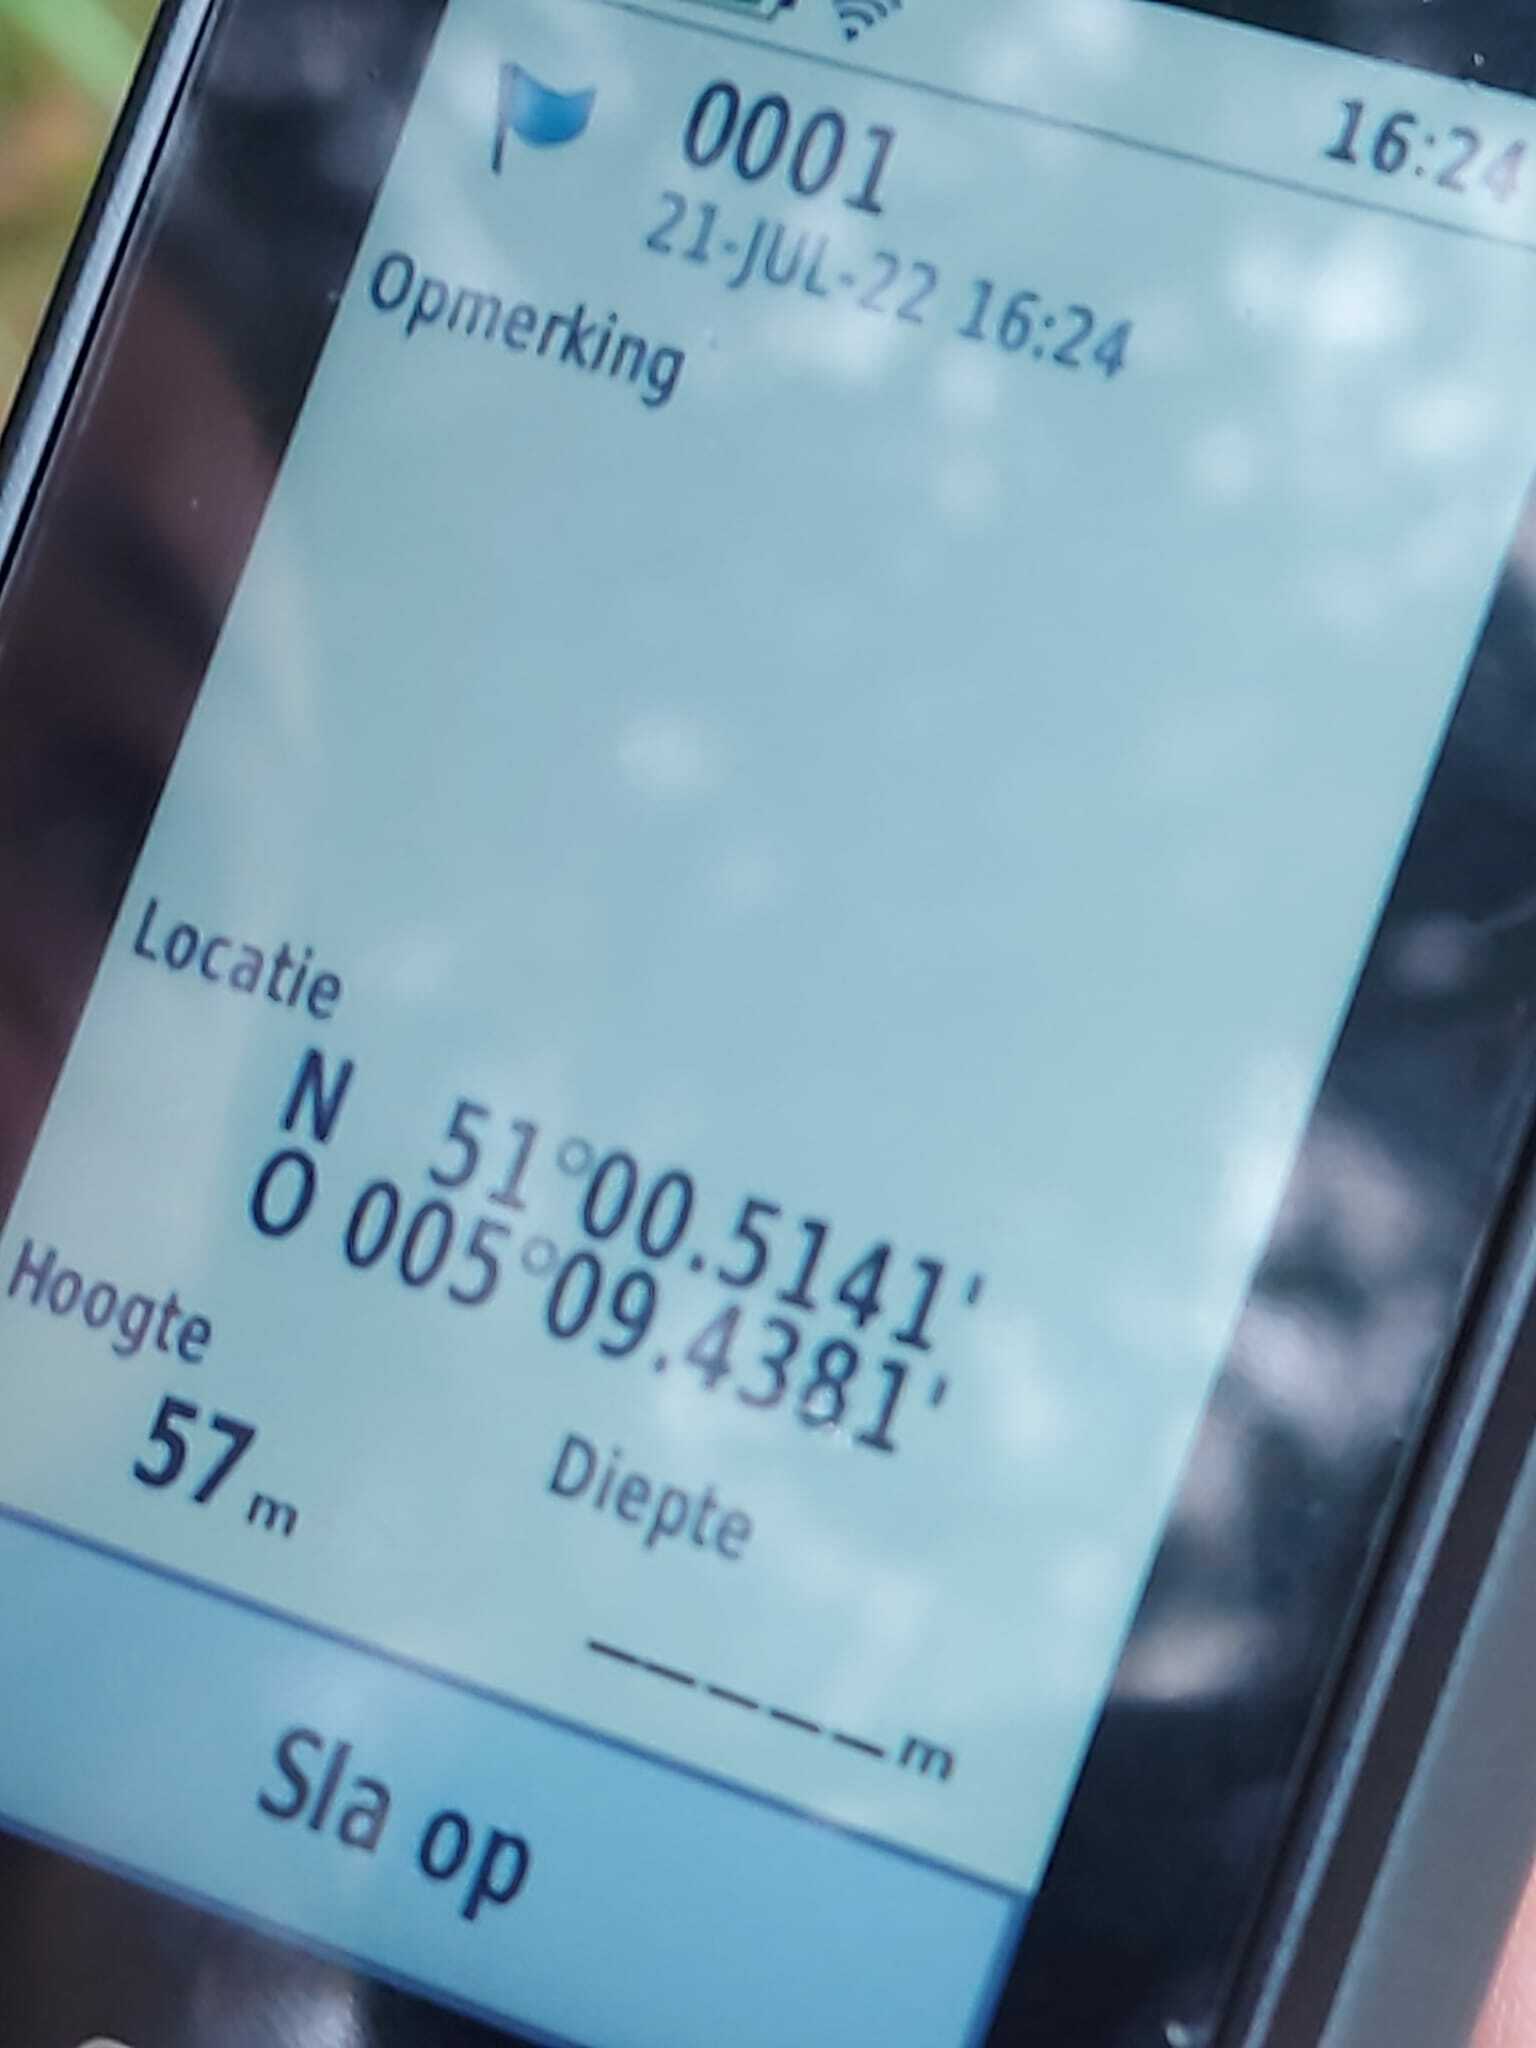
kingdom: Animalia
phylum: Arthropoda
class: Insecta
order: Hymenoptera
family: Vespidae
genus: Vespa
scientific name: Vespa crabro
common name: Hornet
